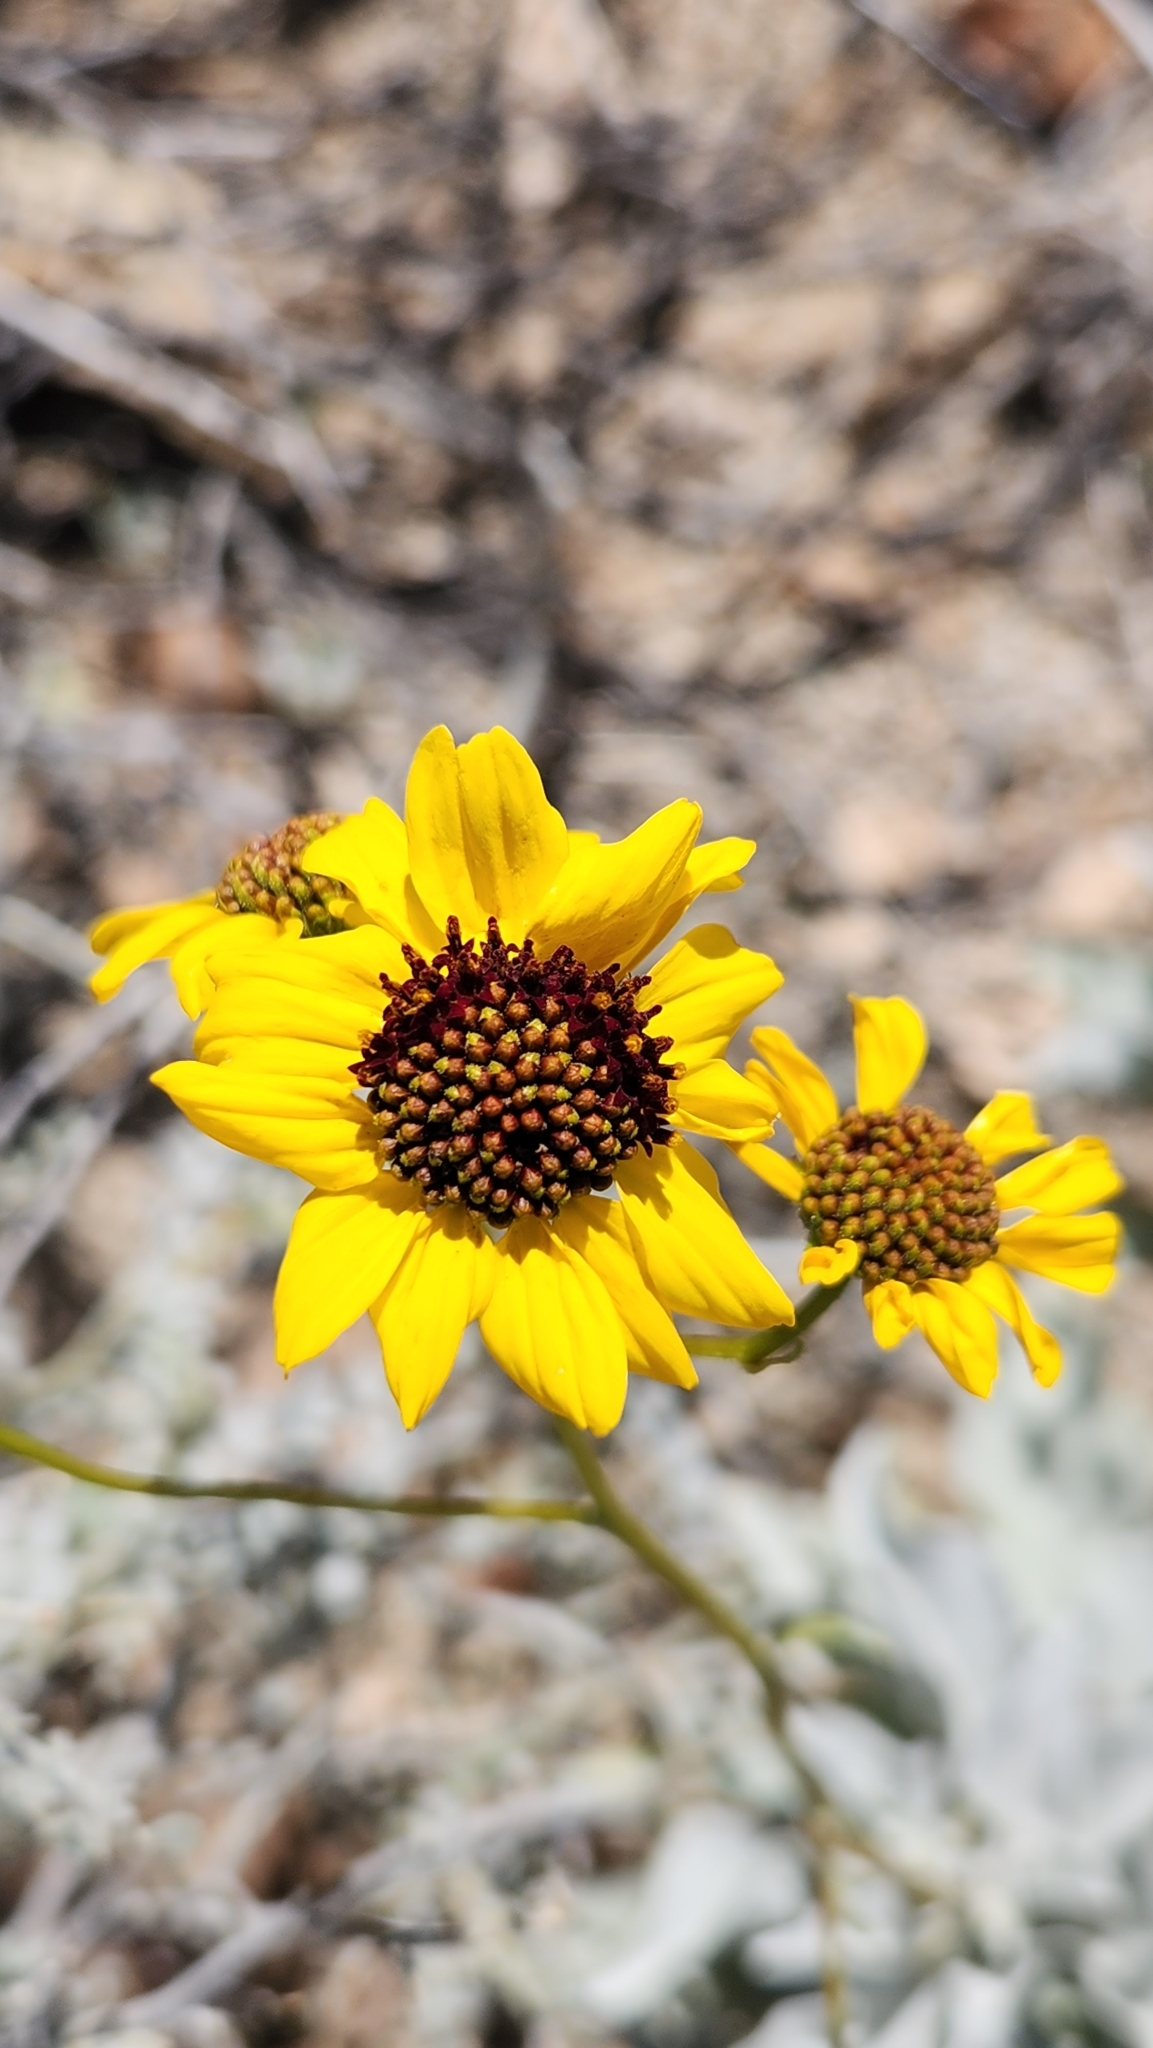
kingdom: Plantae
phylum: Tracheophyta
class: Magnoliopsida
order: Asterales
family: Asteraceae
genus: Encelia
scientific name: Encelia farinosa
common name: Brittlebush
